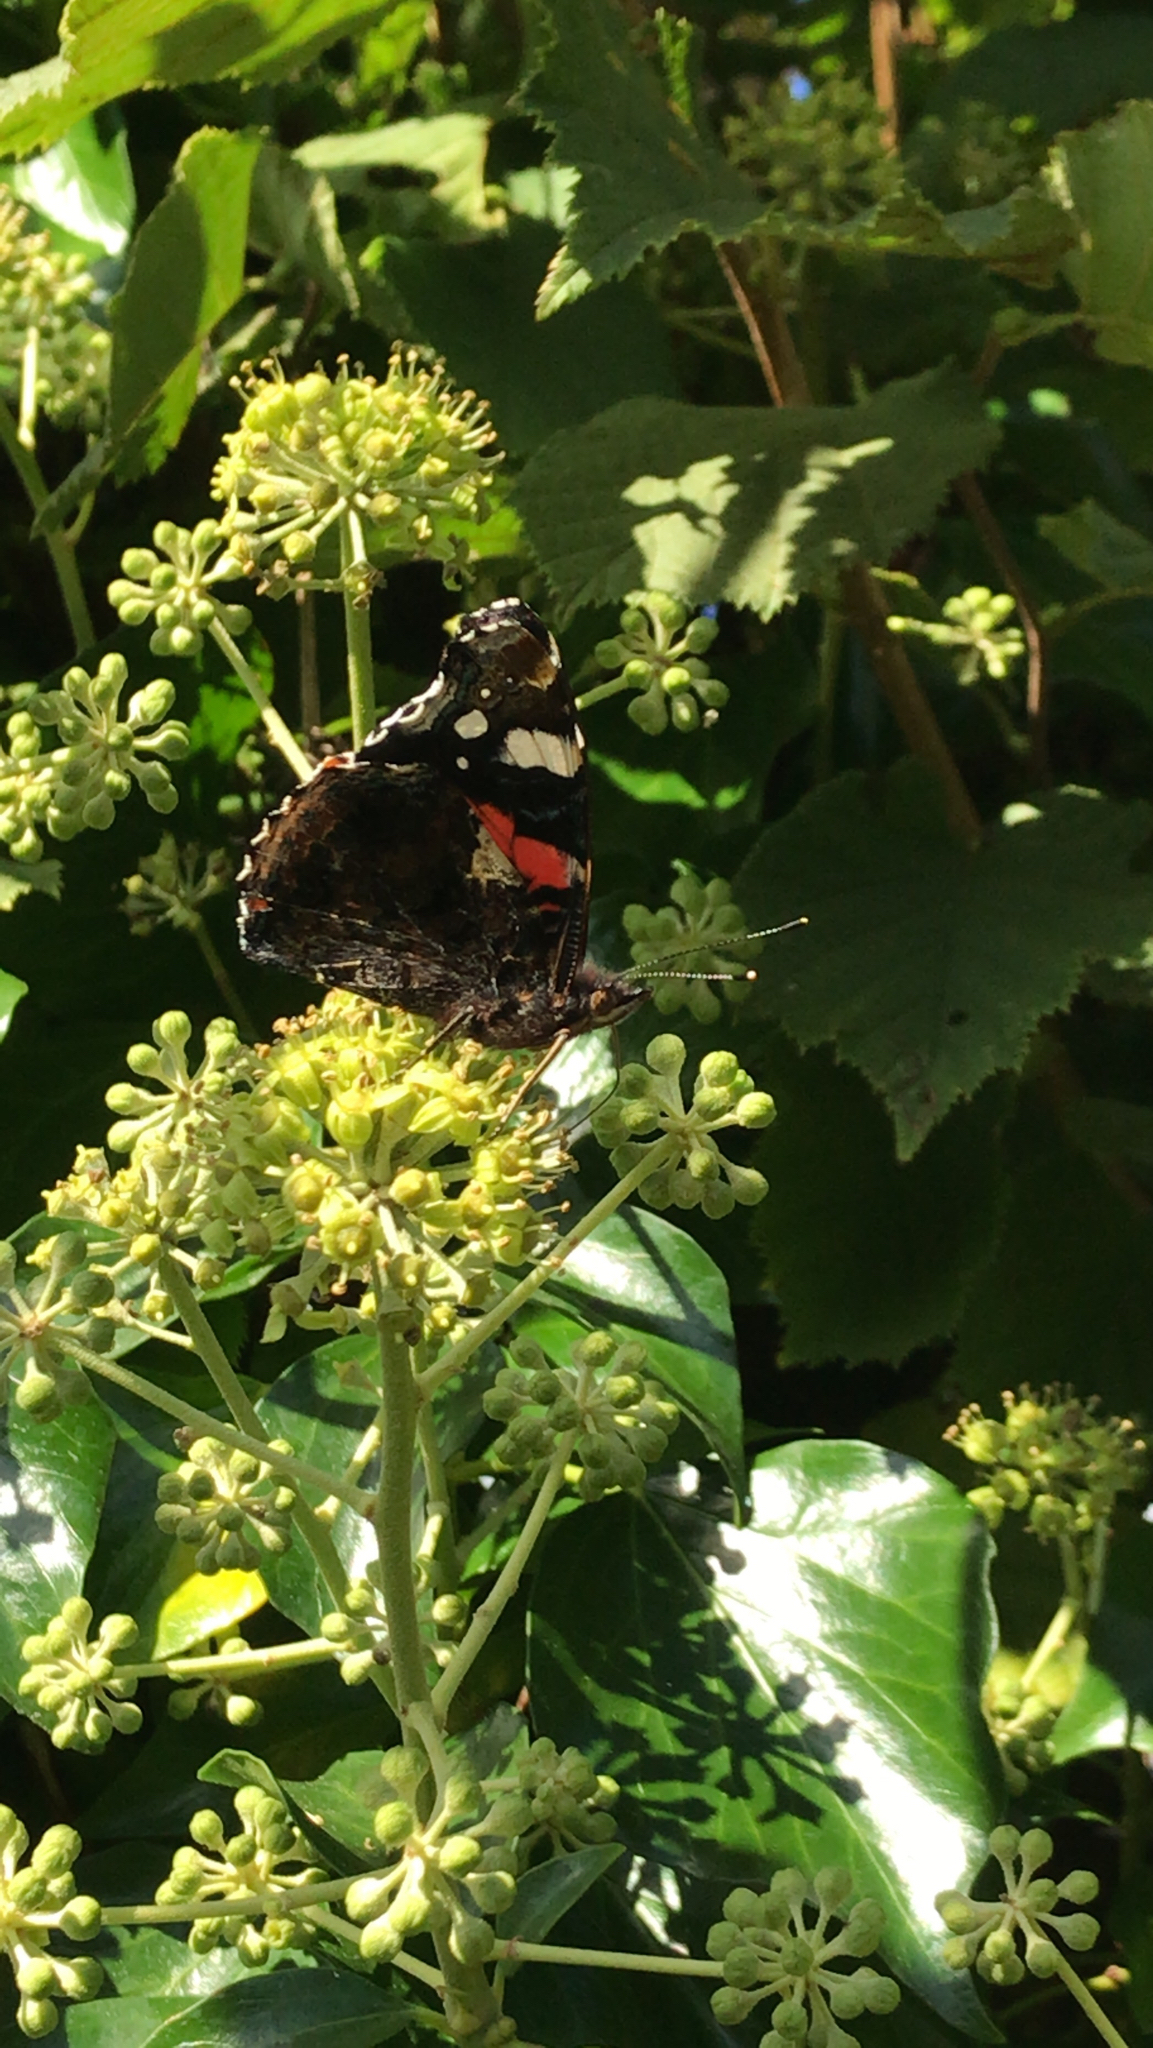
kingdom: Animalia
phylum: Arthropoda
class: Insecta
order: Lepidoptera
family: Nymphalidae
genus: Vanessa
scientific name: Vanessa atalanta
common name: Red admiral
